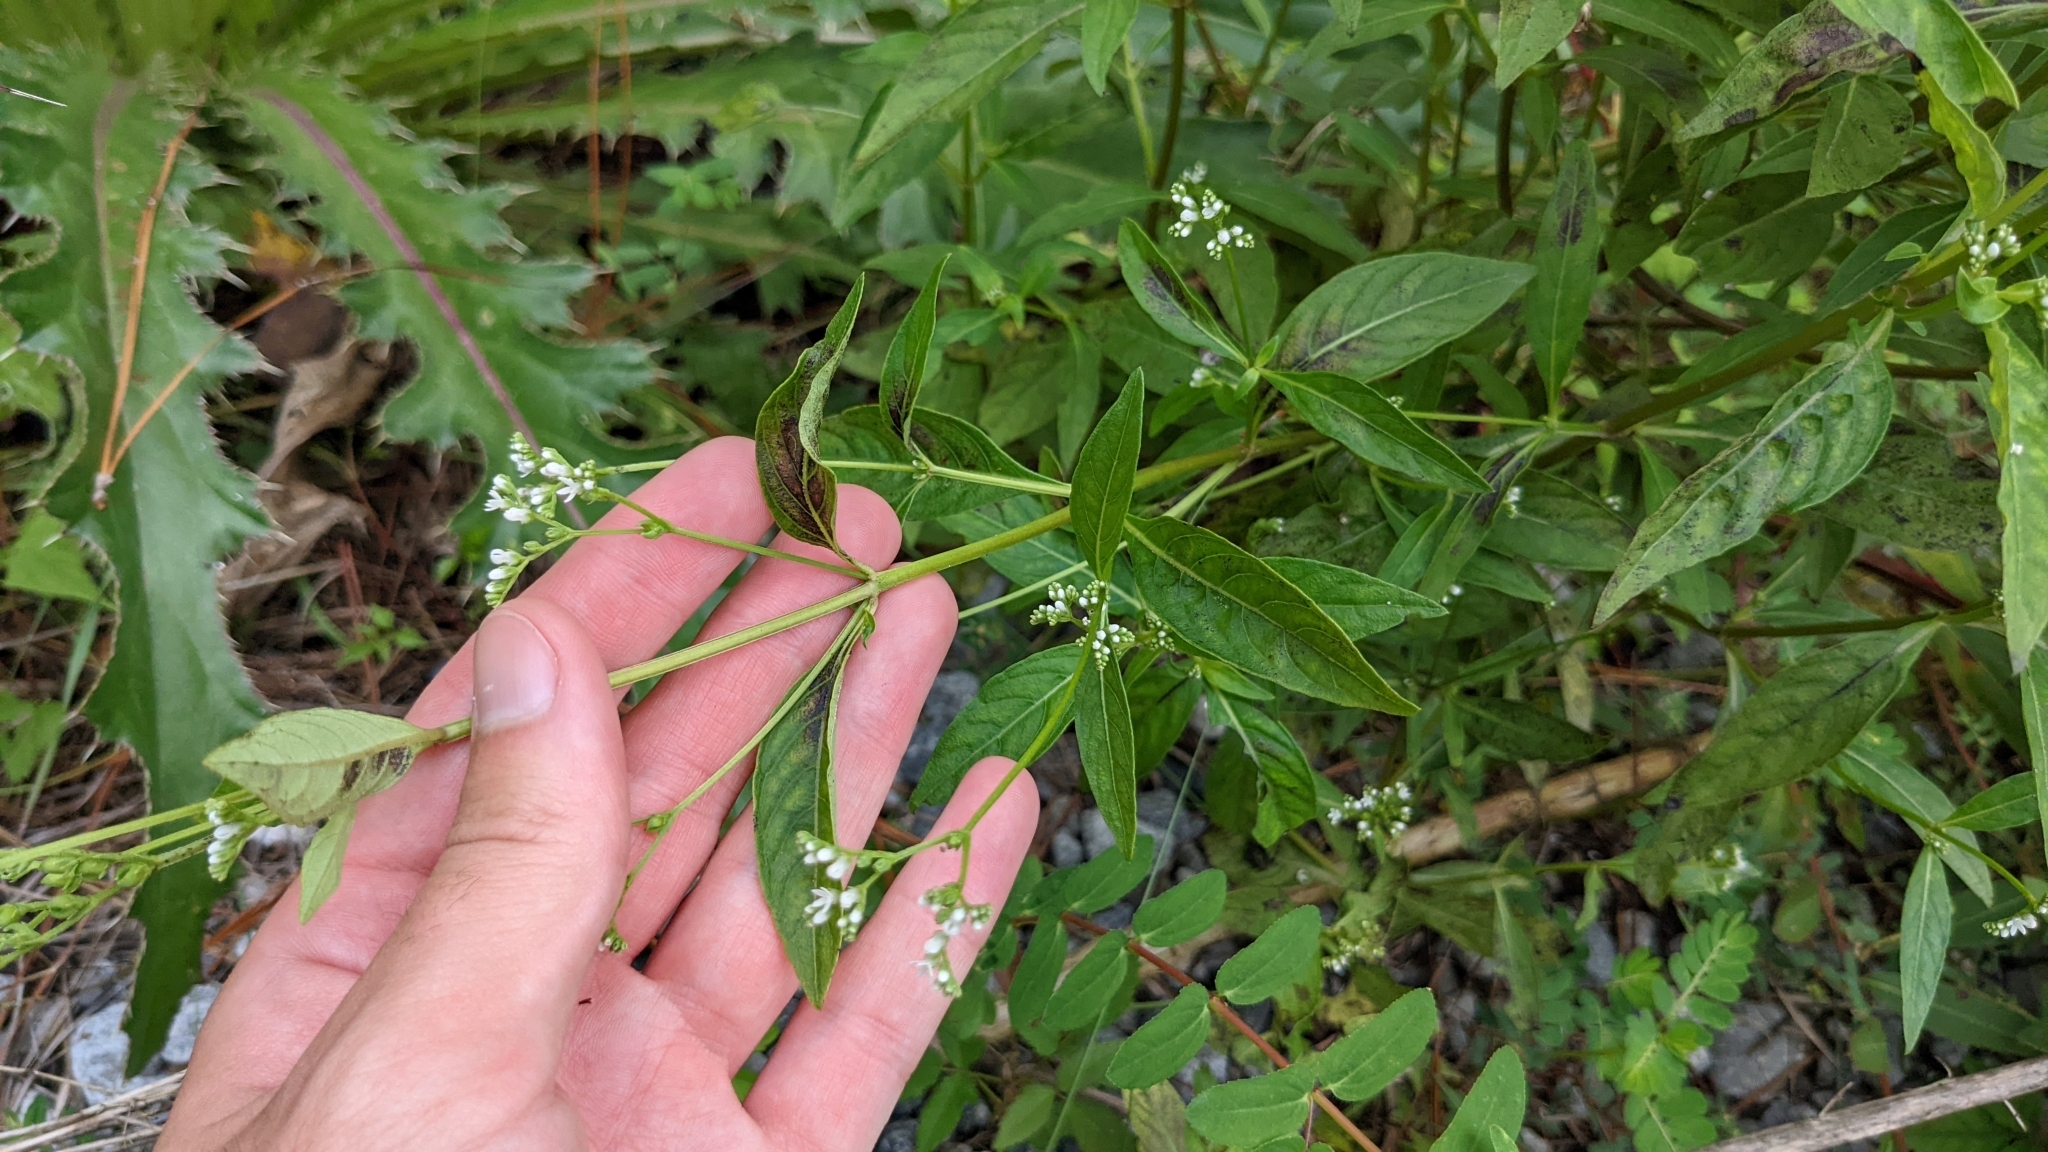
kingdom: Plantae
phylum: Tracheophyta
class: Magnoliopsida
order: Gentianales
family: Loganiaceae
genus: Mitreola
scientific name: Mitreola petiolata
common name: Lax hornpod
